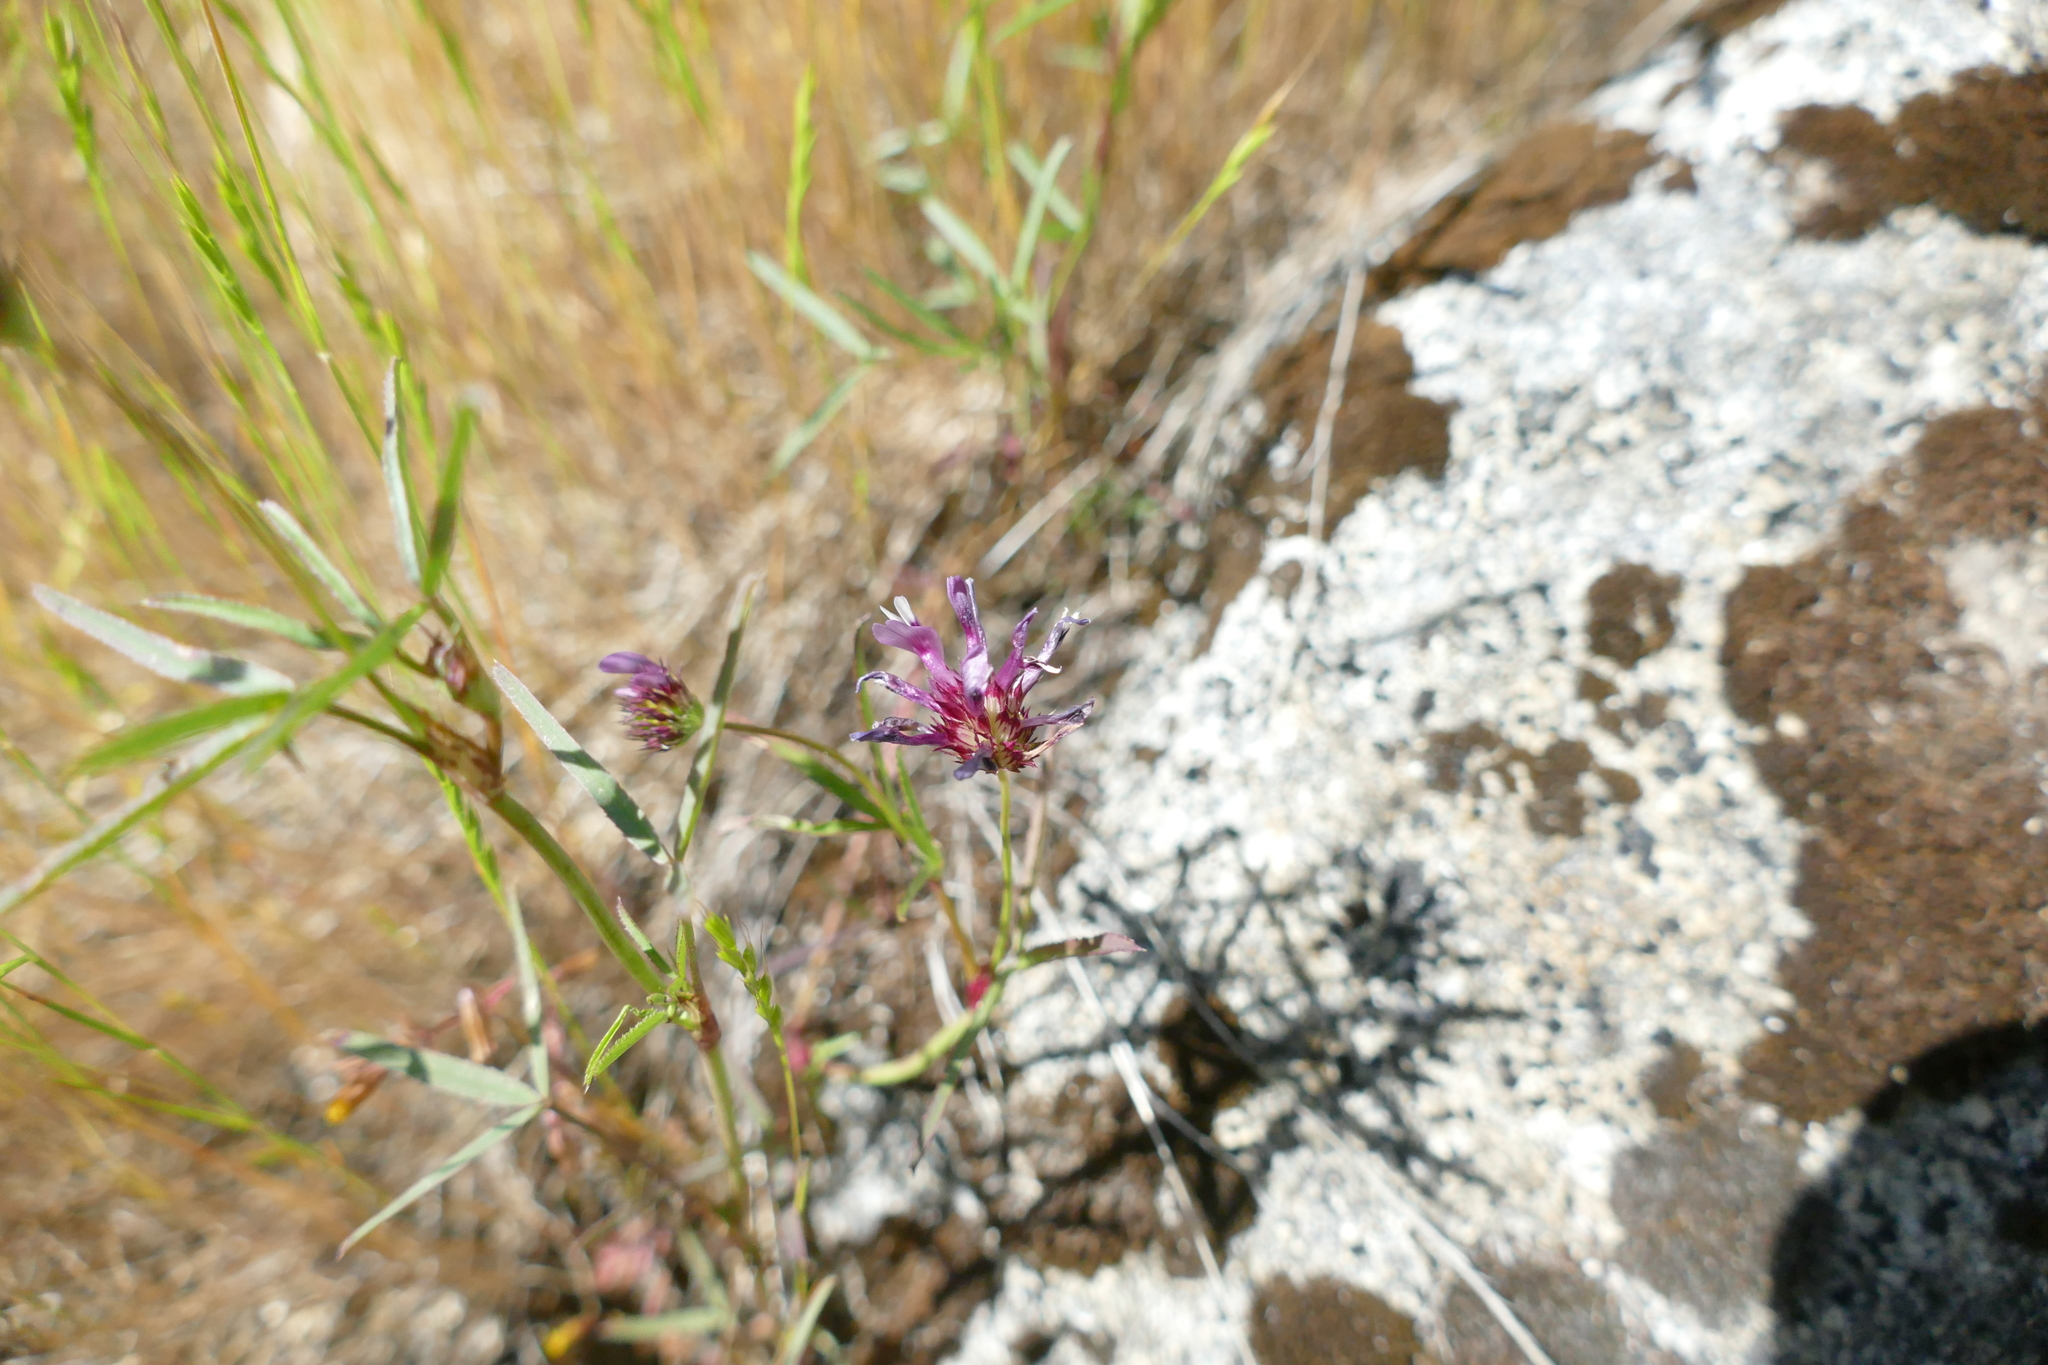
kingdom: Plantae
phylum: Tracheophyta
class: Magnoliopsida
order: Fabales
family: Fabaceae
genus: Trifolium
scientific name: Trifolium willdenovii
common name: Tomcat clover
